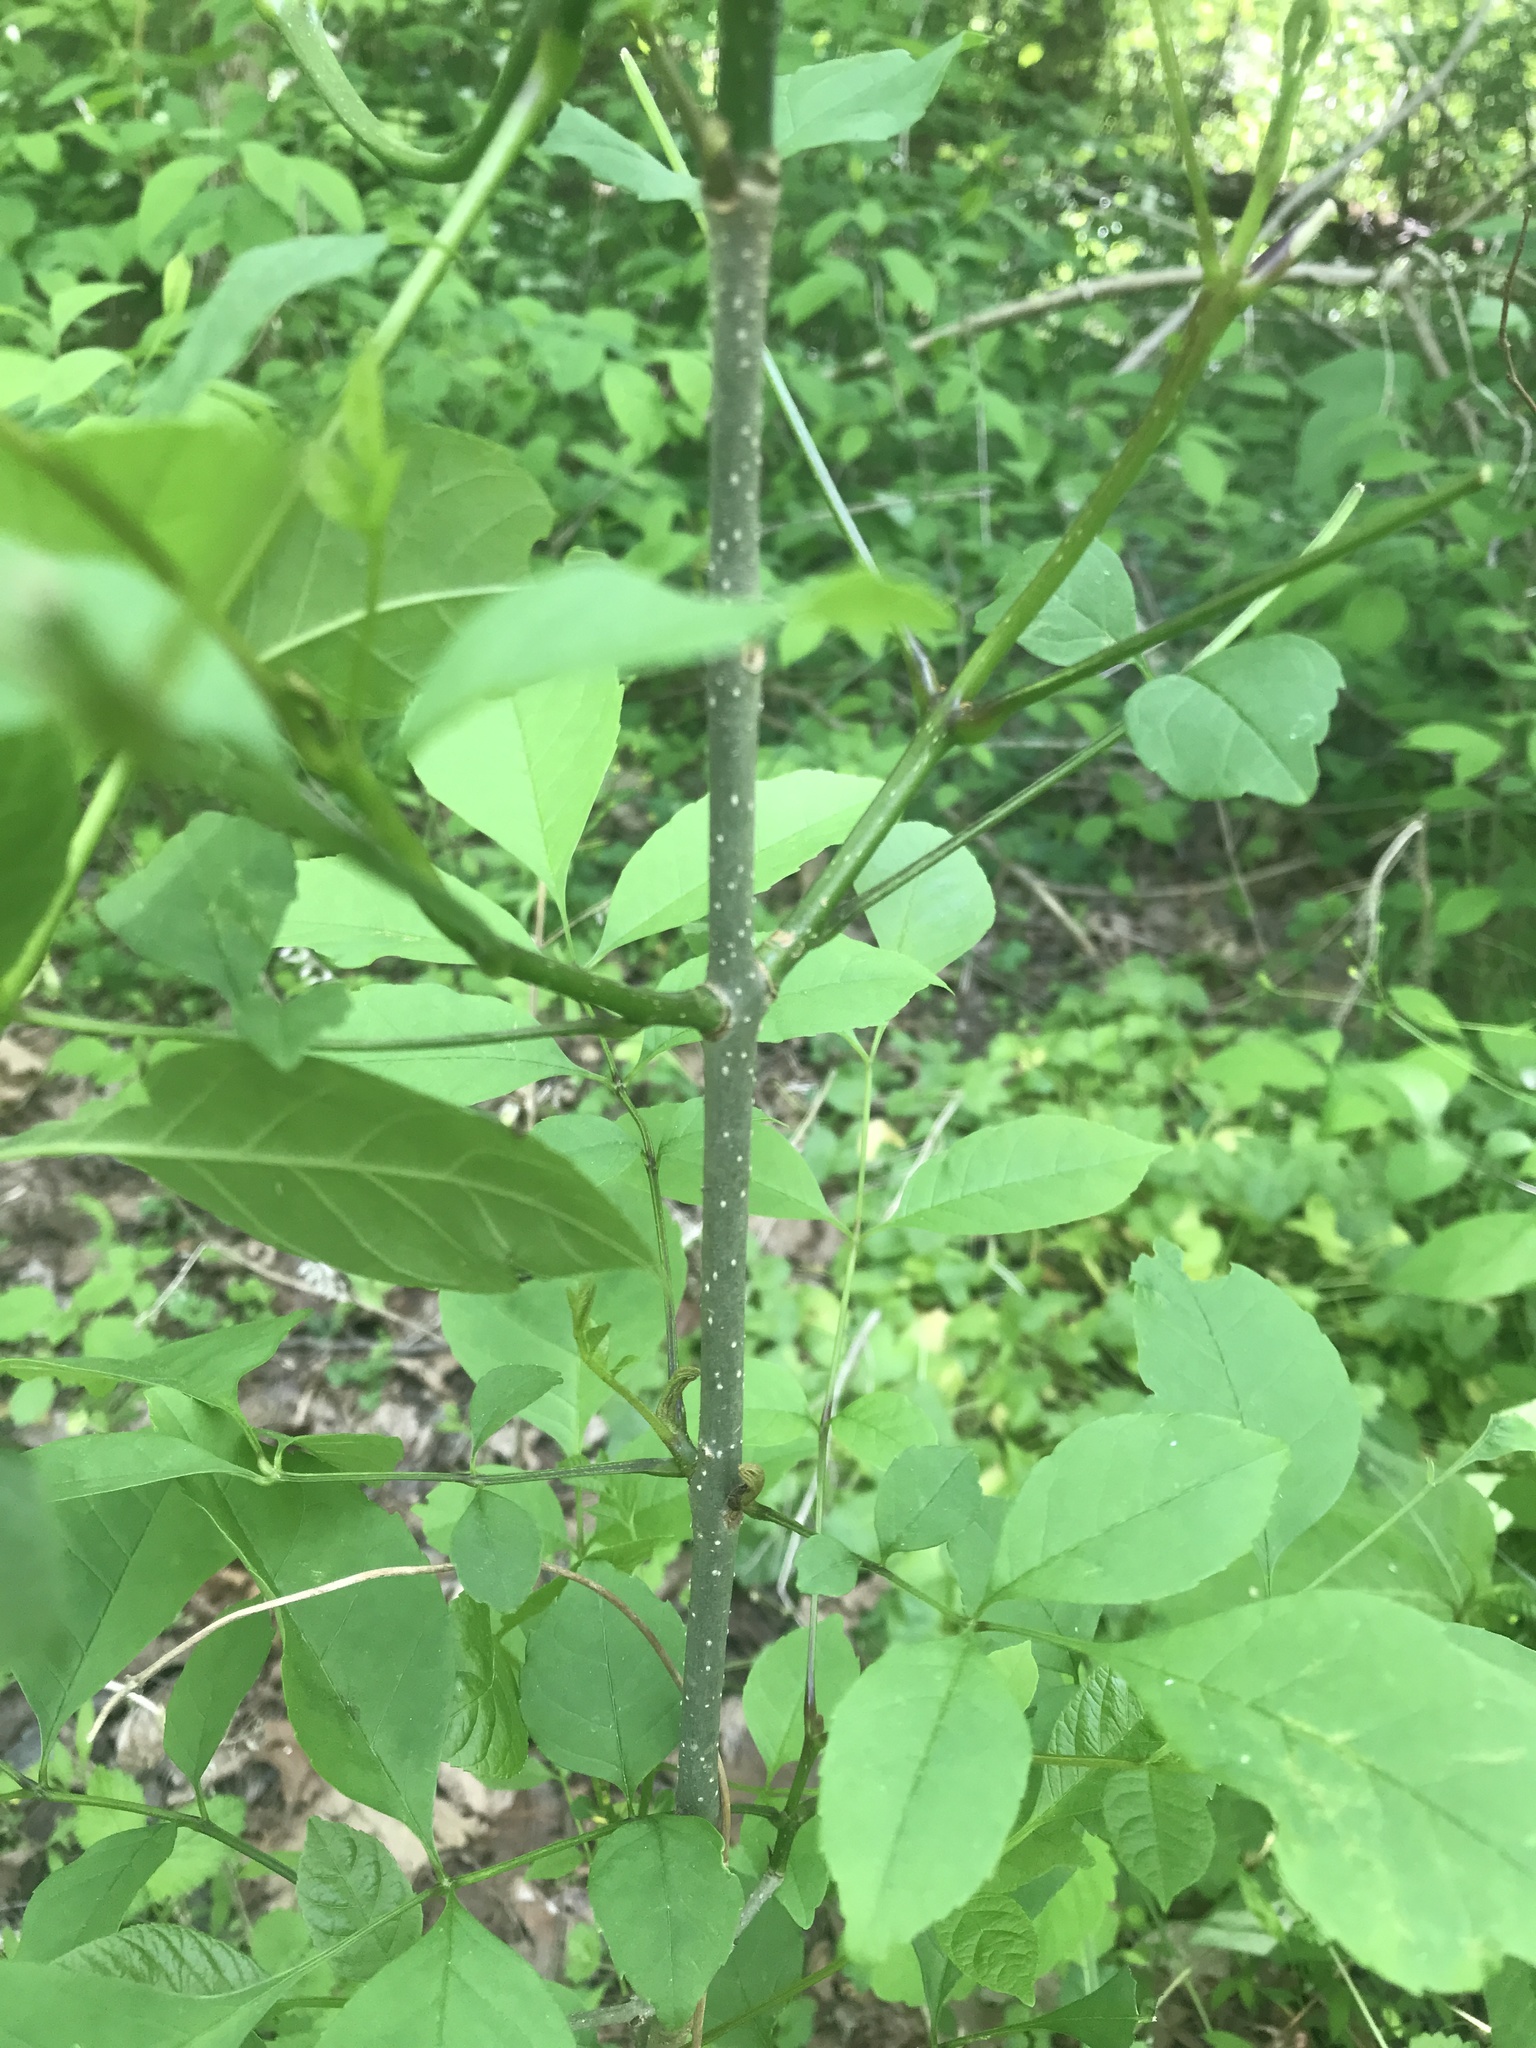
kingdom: Plantae
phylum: Tracheophyta
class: Magnoliopsida
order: Lamiales
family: Oleaceae
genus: Fraxinus
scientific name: Fraxinus pennsylvanica
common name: Green ash
